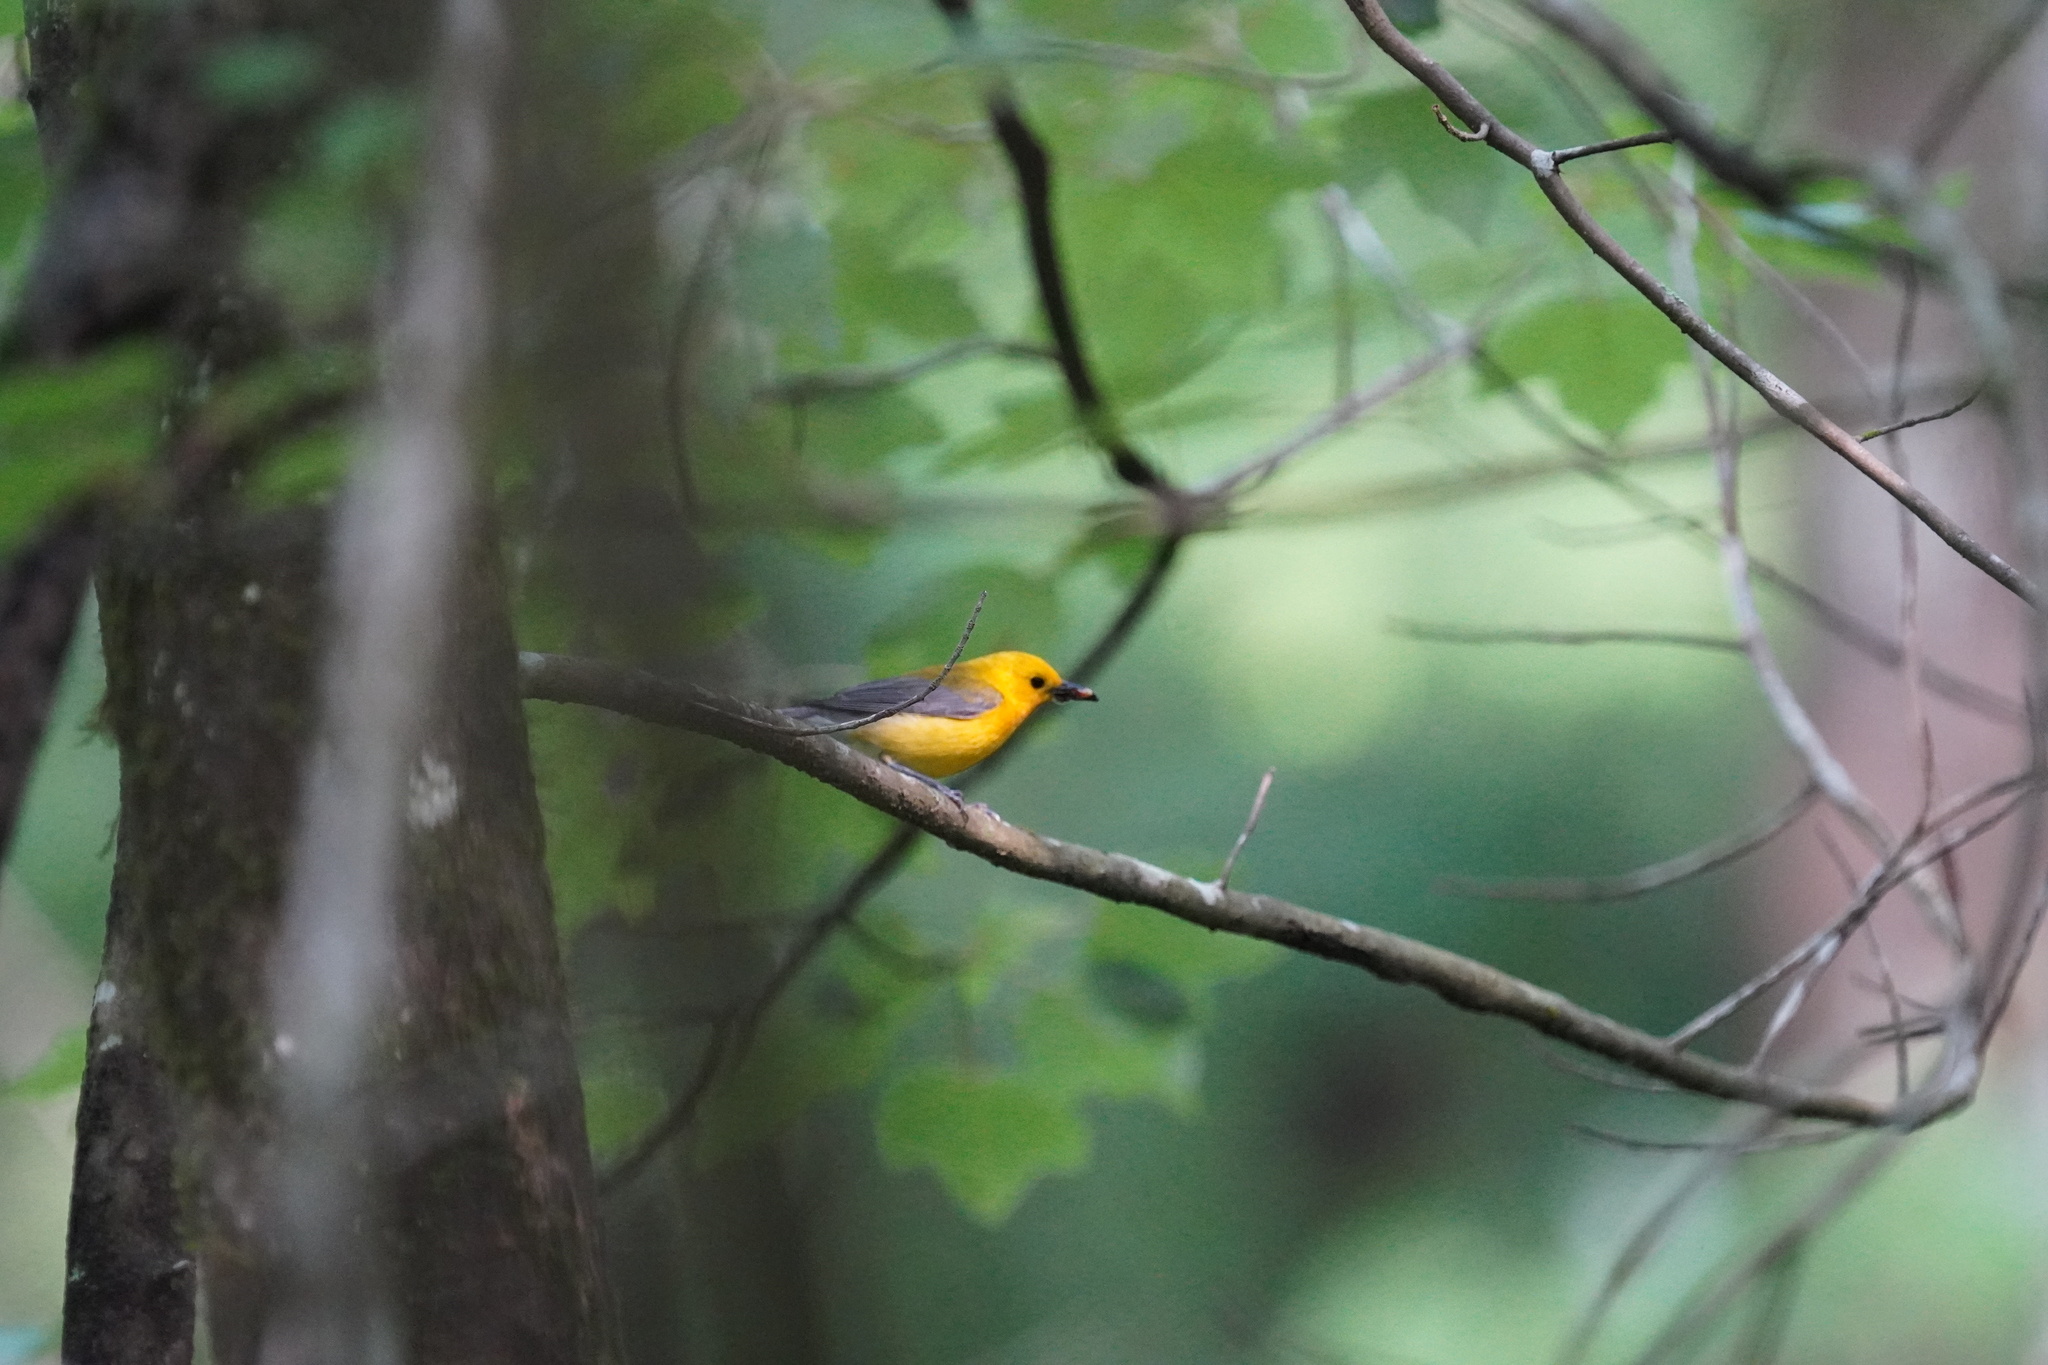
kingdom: Animalia
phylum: Chordata
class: Aves
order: Passeriformes
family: Parulidae
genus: Protonotaria
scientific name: Protonotaria citrea
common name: Prothonotary warbler
